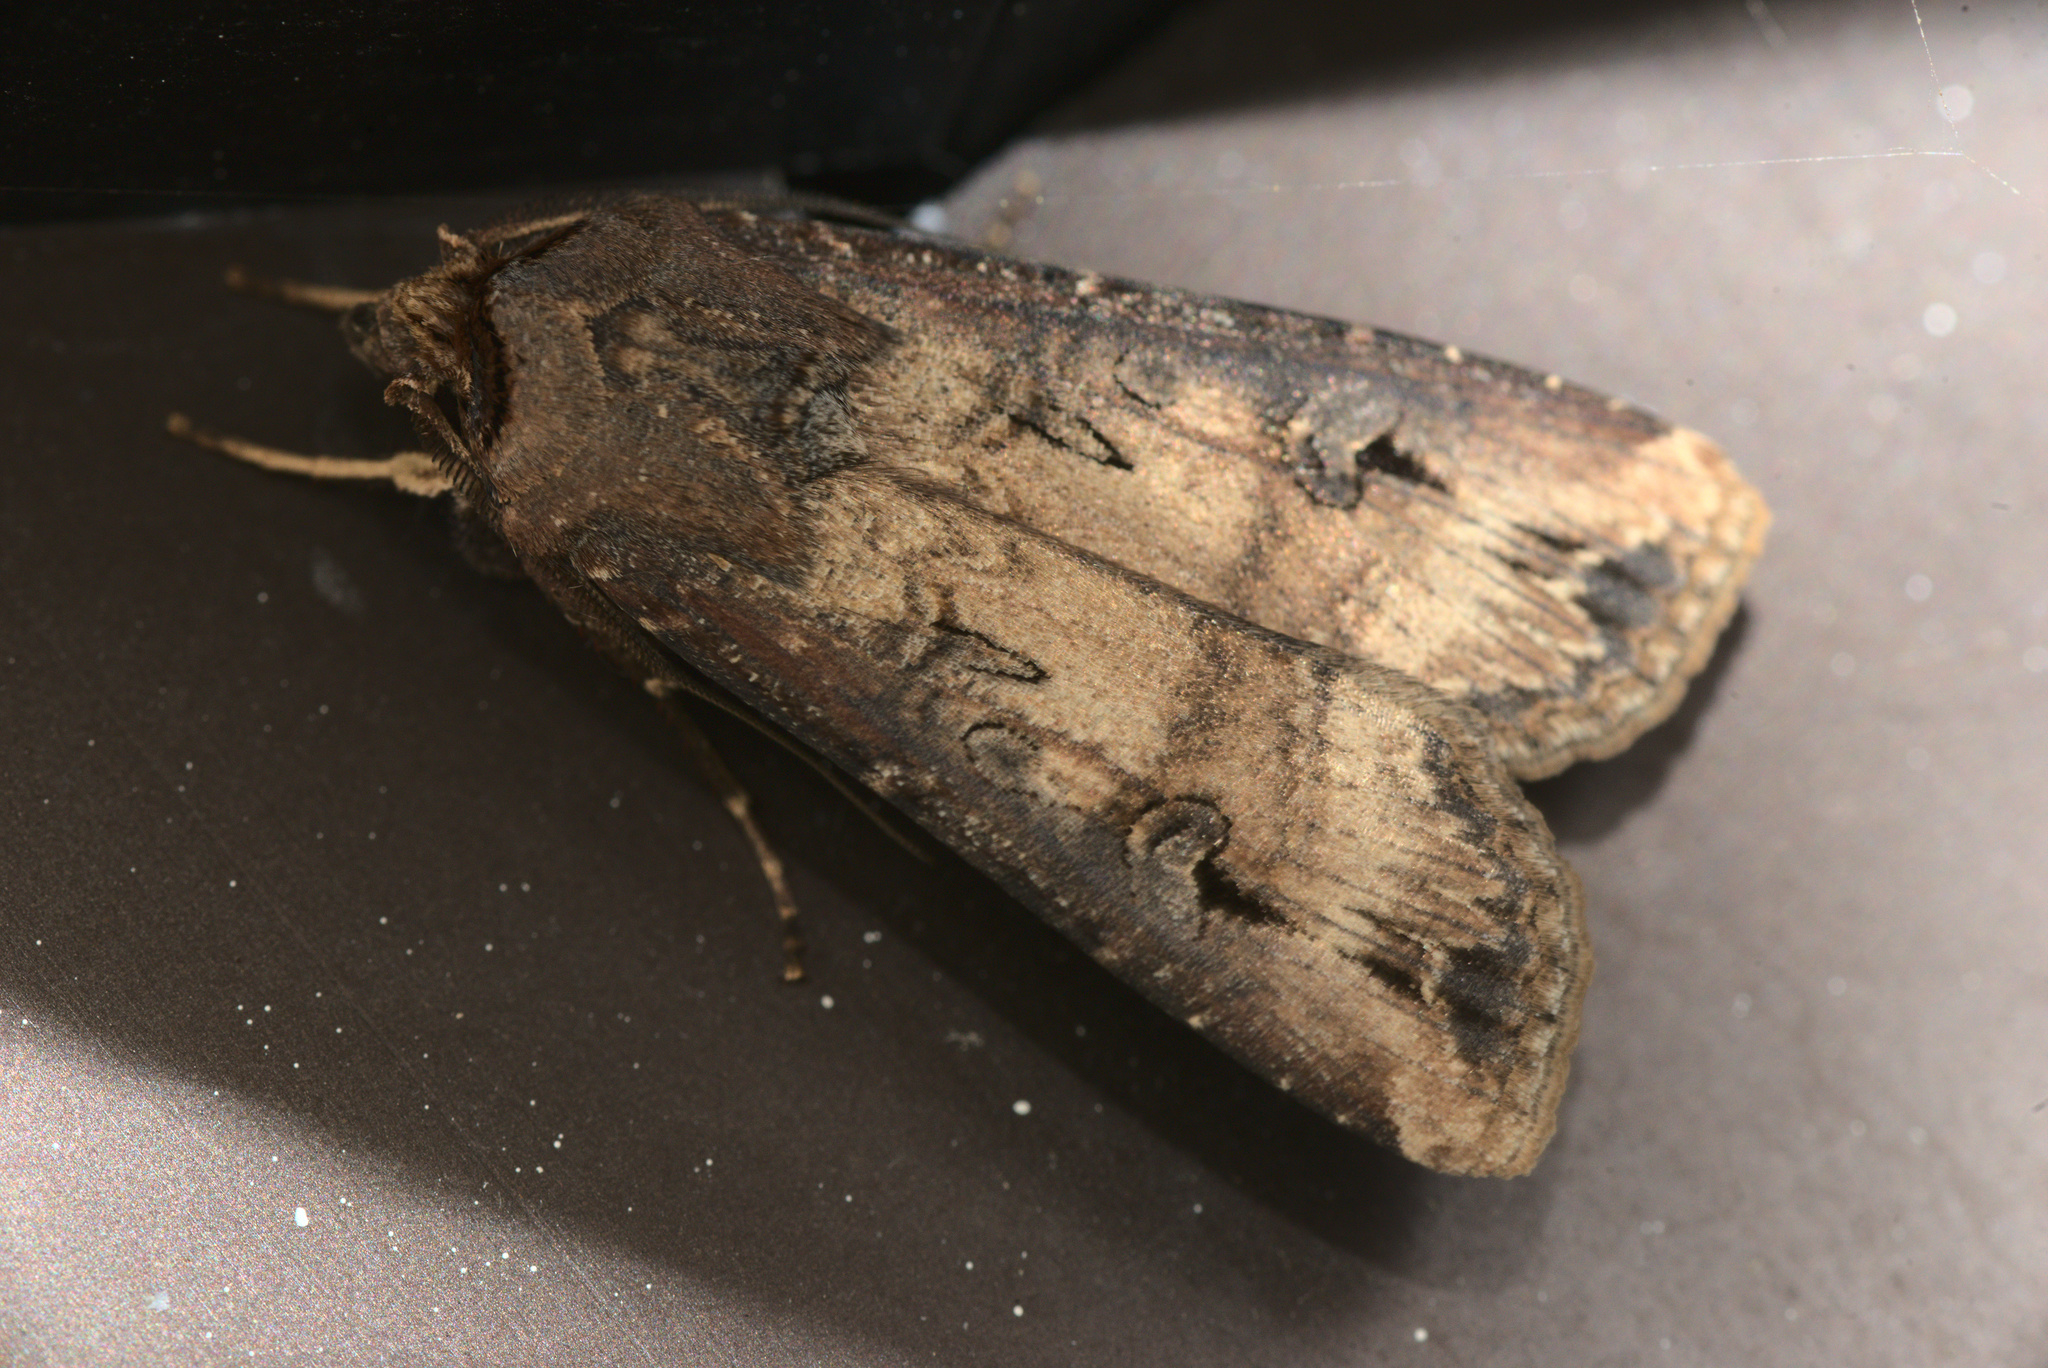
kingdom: Animalia
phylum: Arthropoda
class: Insecta
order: Lepidoptera
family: Noctuidae
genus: Agrotis
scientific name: Agrotis ipsilon
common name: Dark sword-grass
